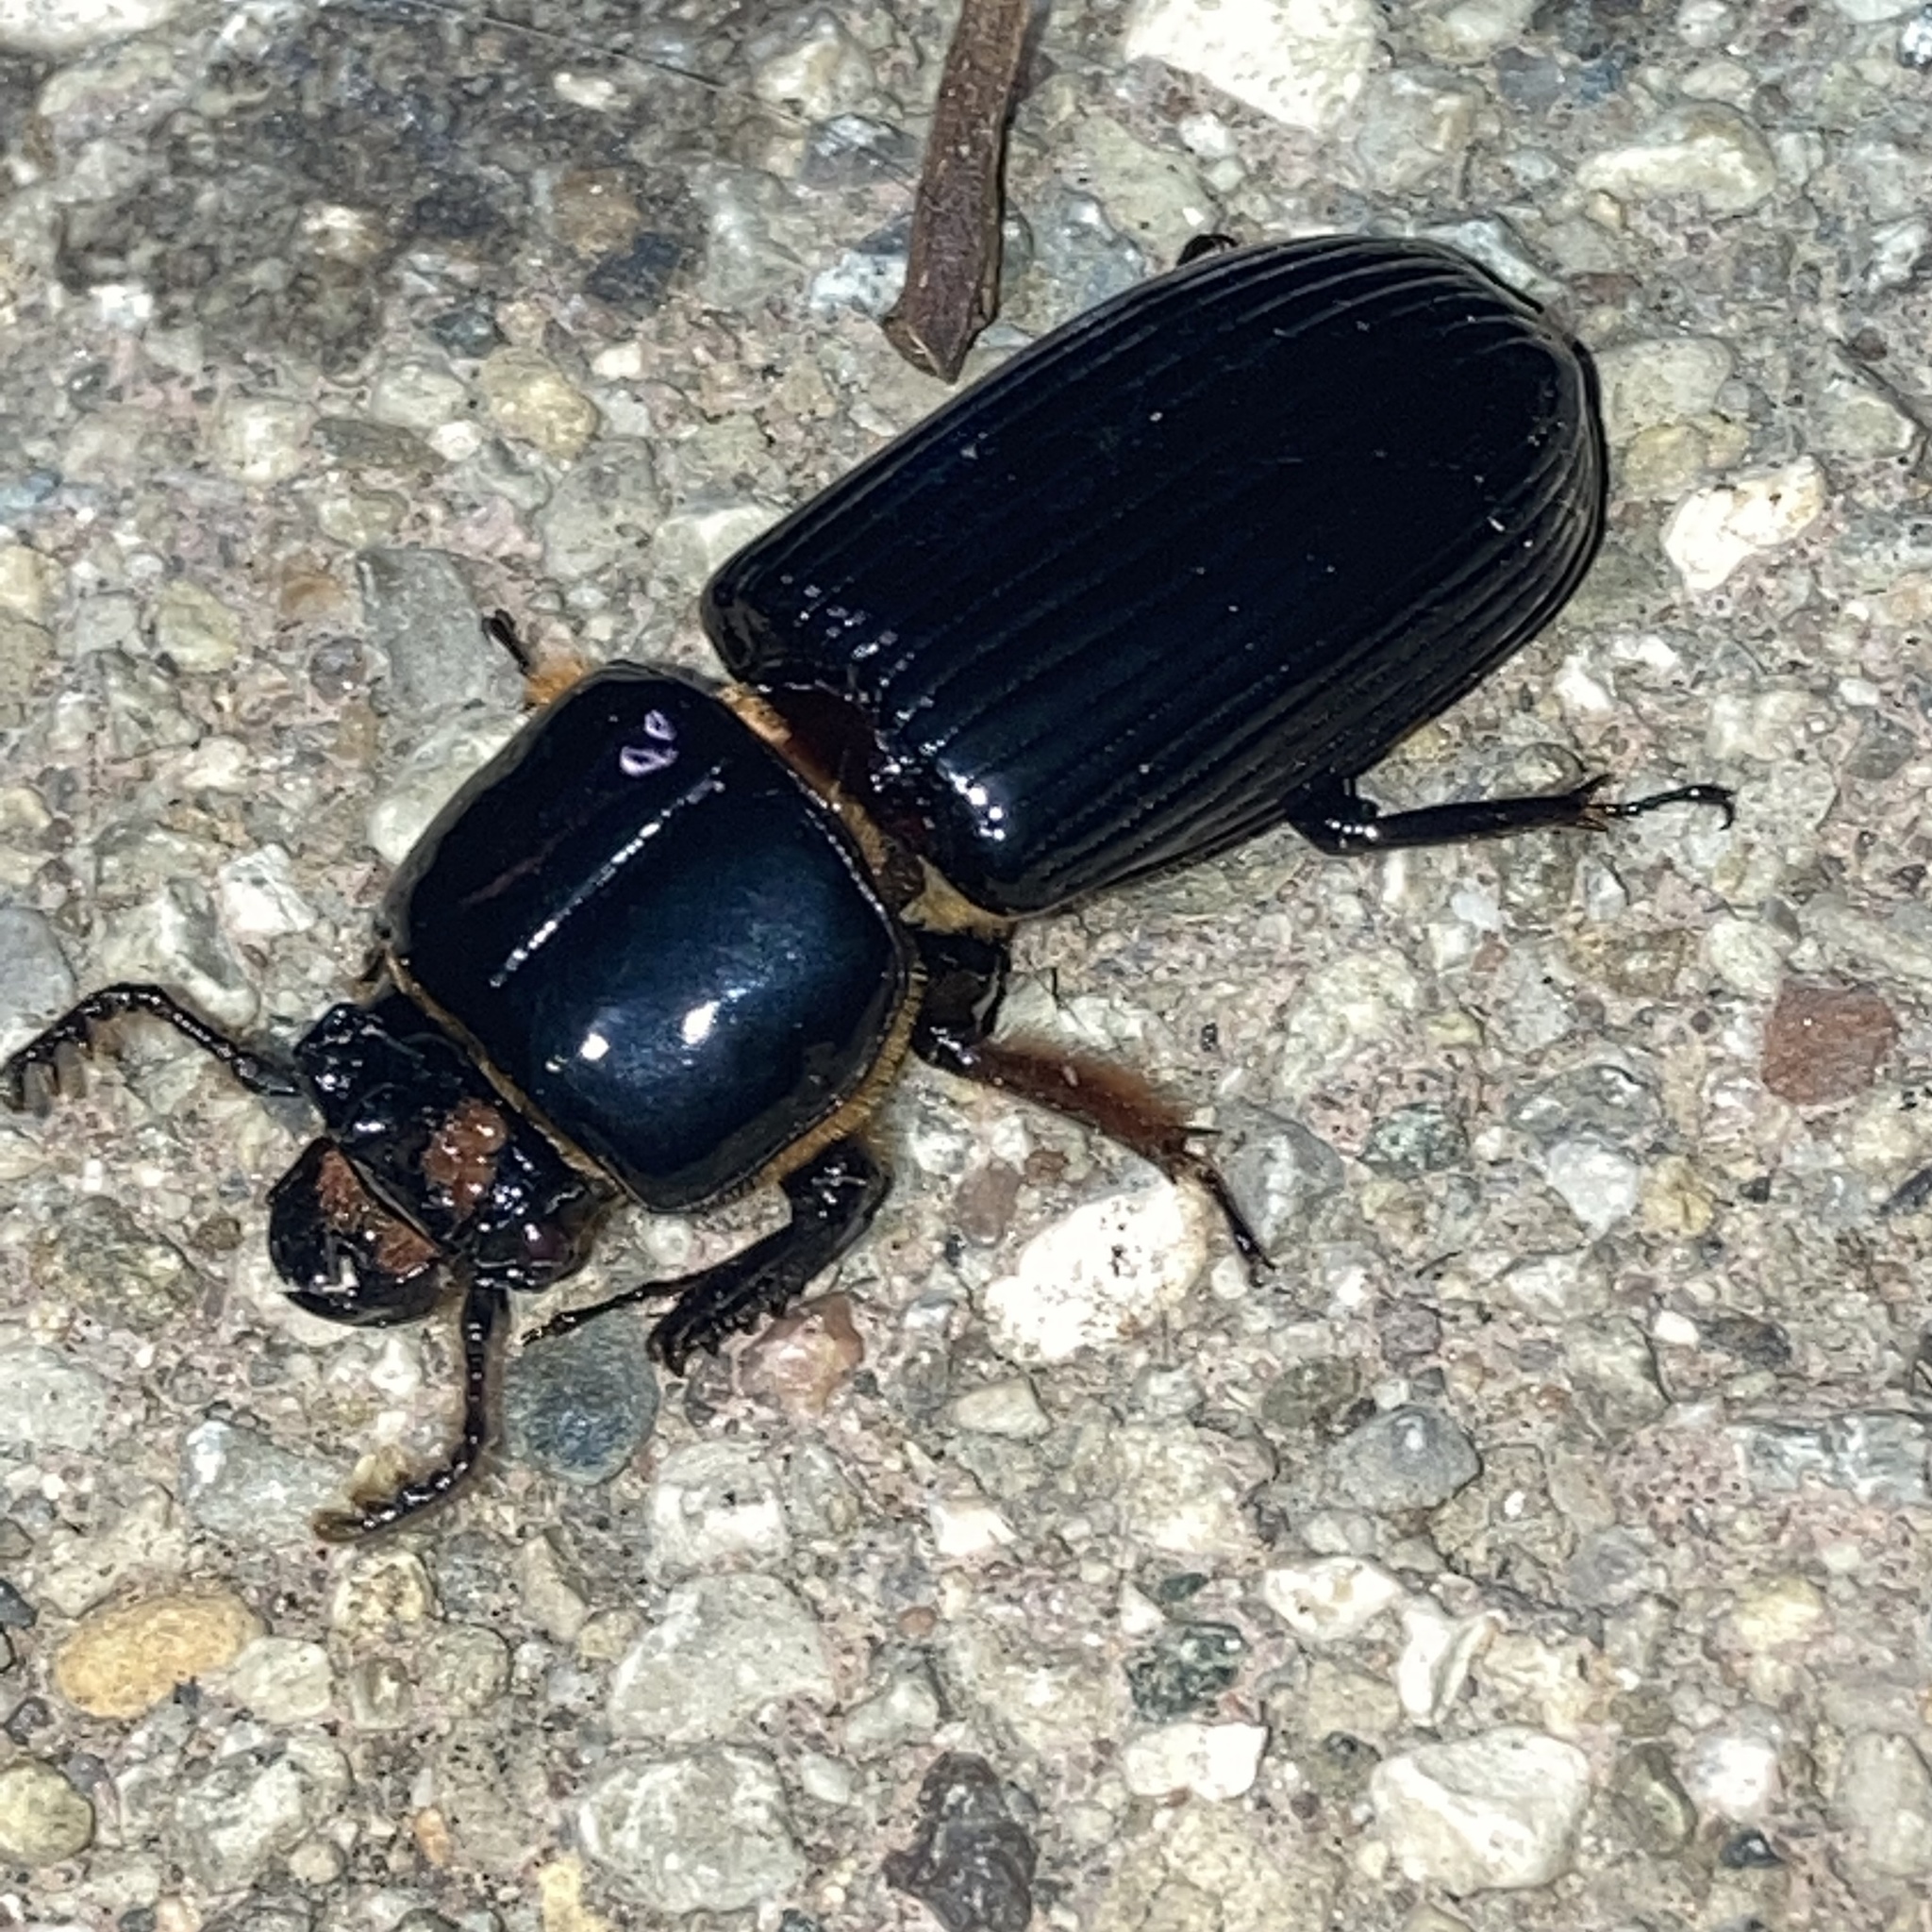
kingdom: Animalia
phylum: Arthropoda
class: Insecta
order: Coleoptera
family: Passalidae
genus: Odontotaenius
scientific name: Odontotaenius disjunctus
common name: Patent leather beetle
